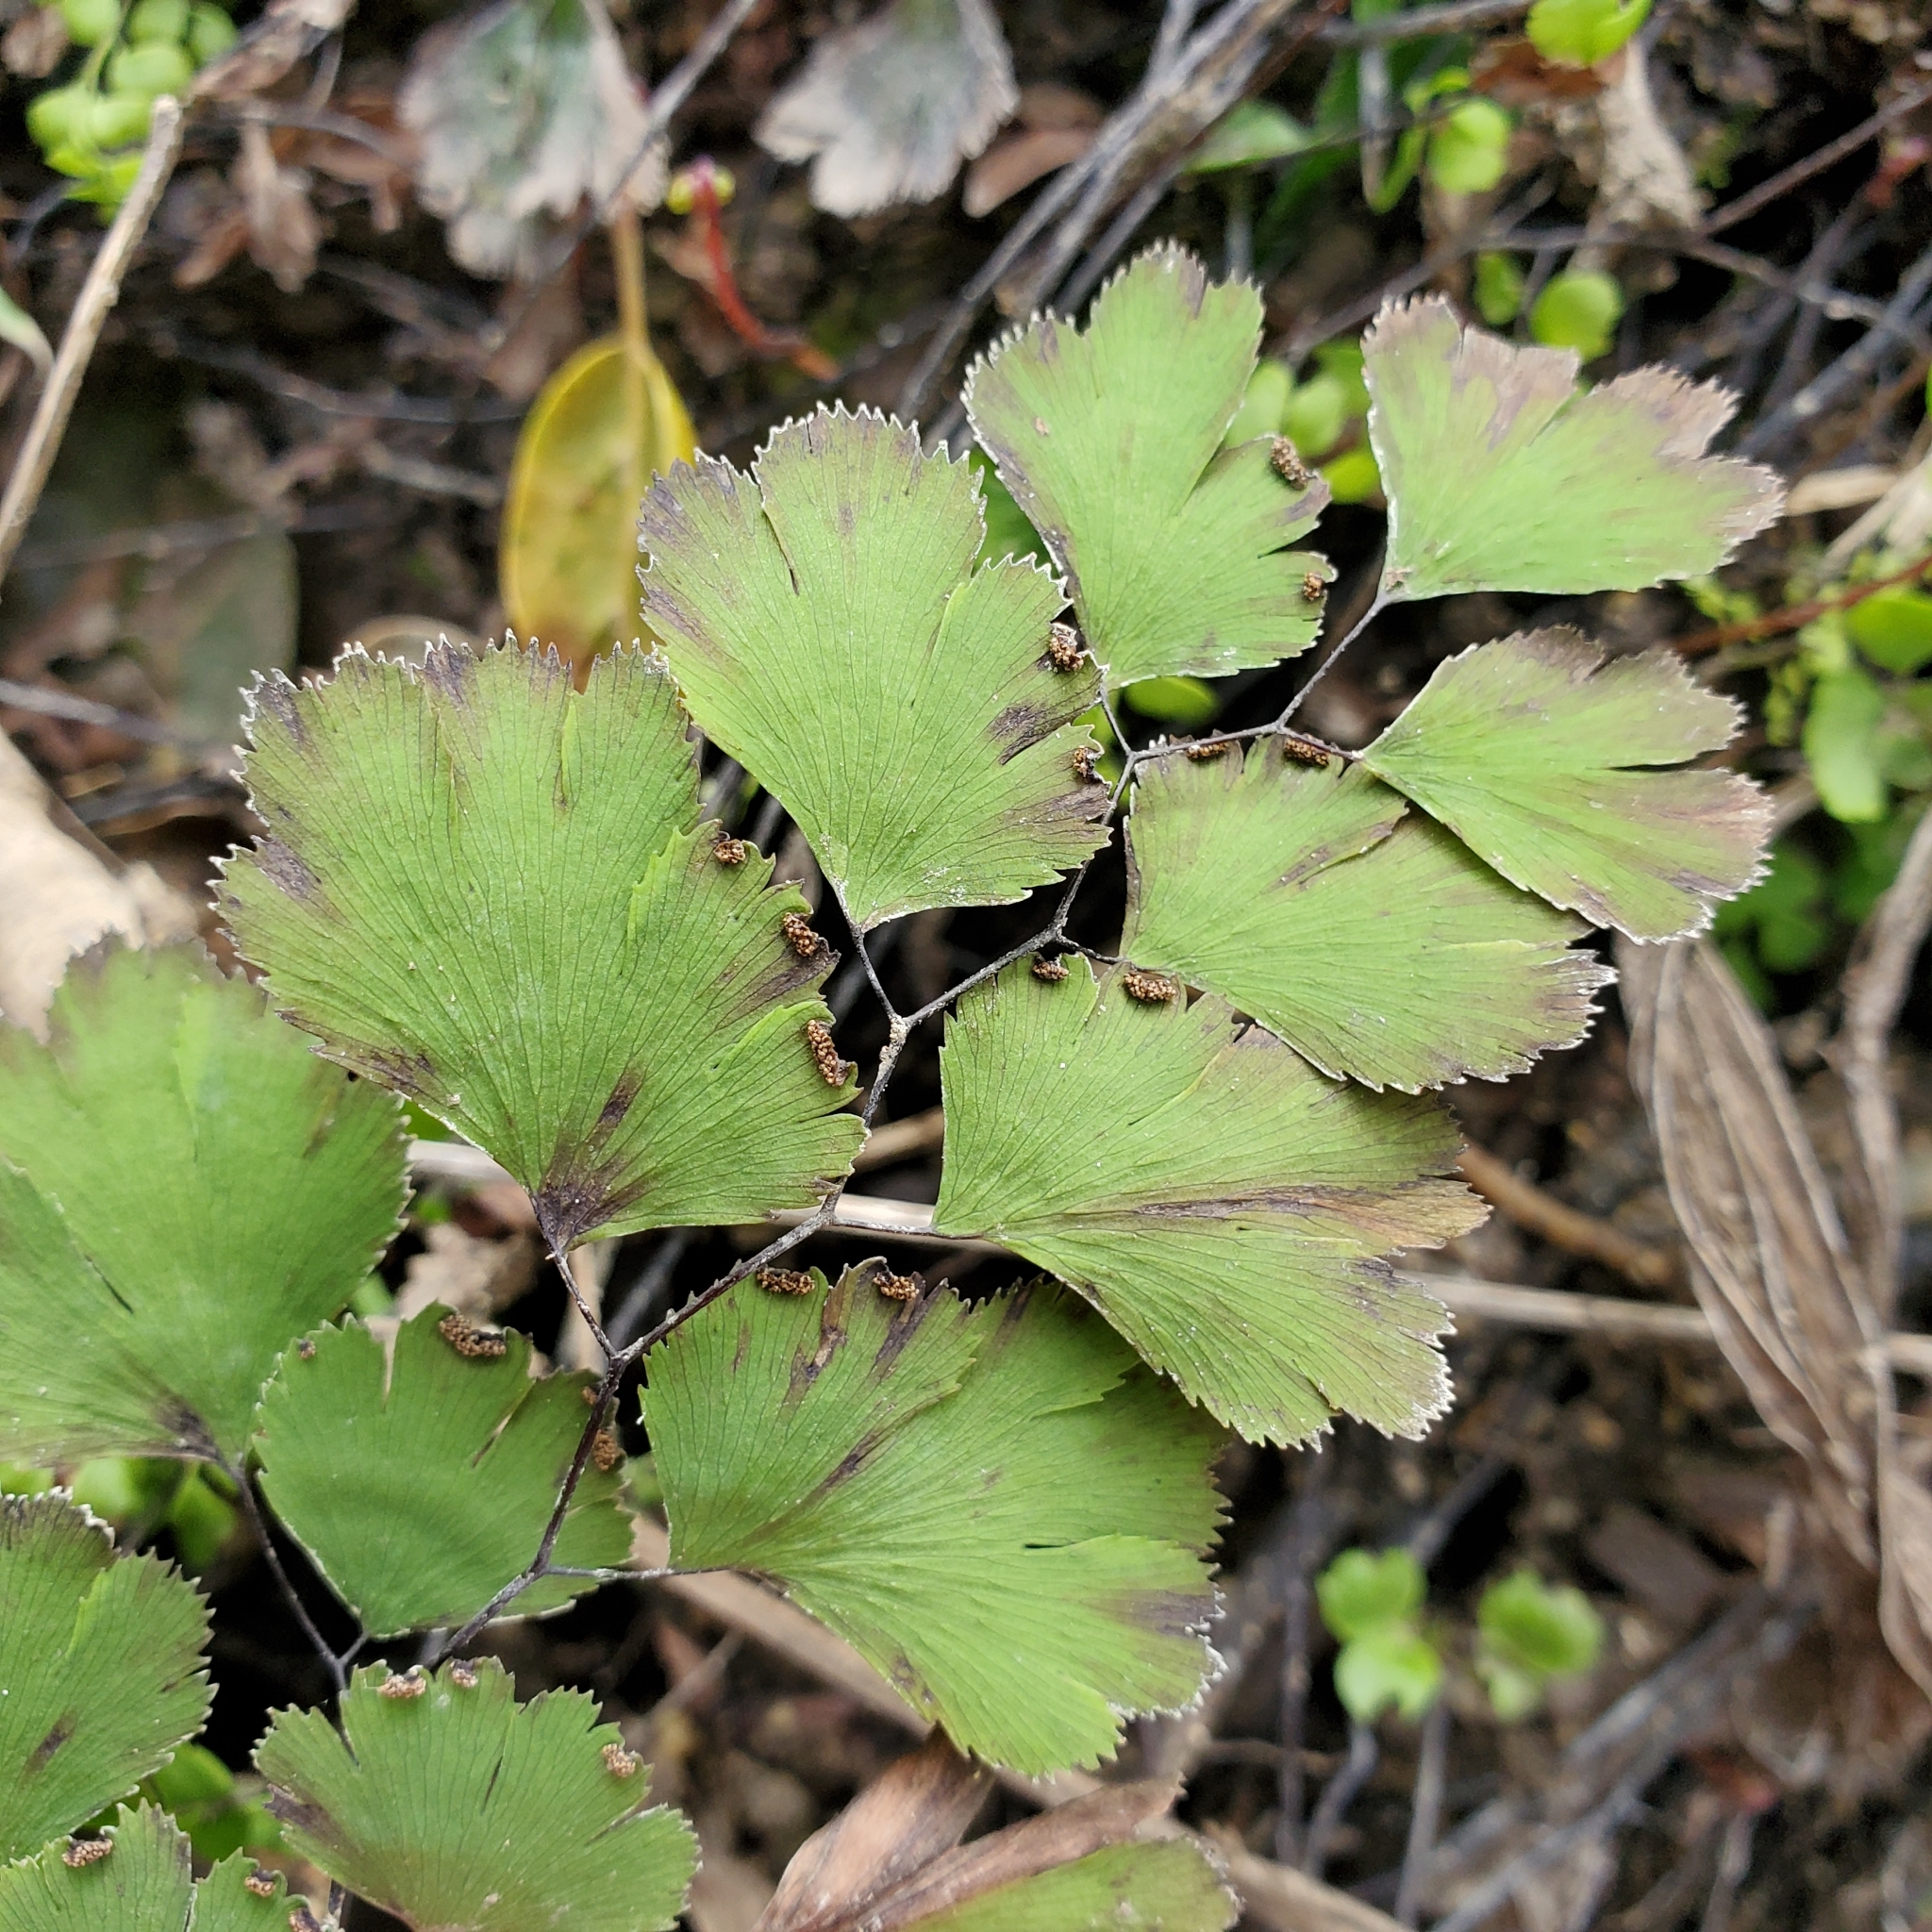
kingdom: Plantae
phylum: Tracheophyta
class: Polypodiopsida
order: Polypodiales
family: Pteridaceae
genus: Adiantum
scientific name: Adiantum capillus-veneris
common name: Maidenhair fern
